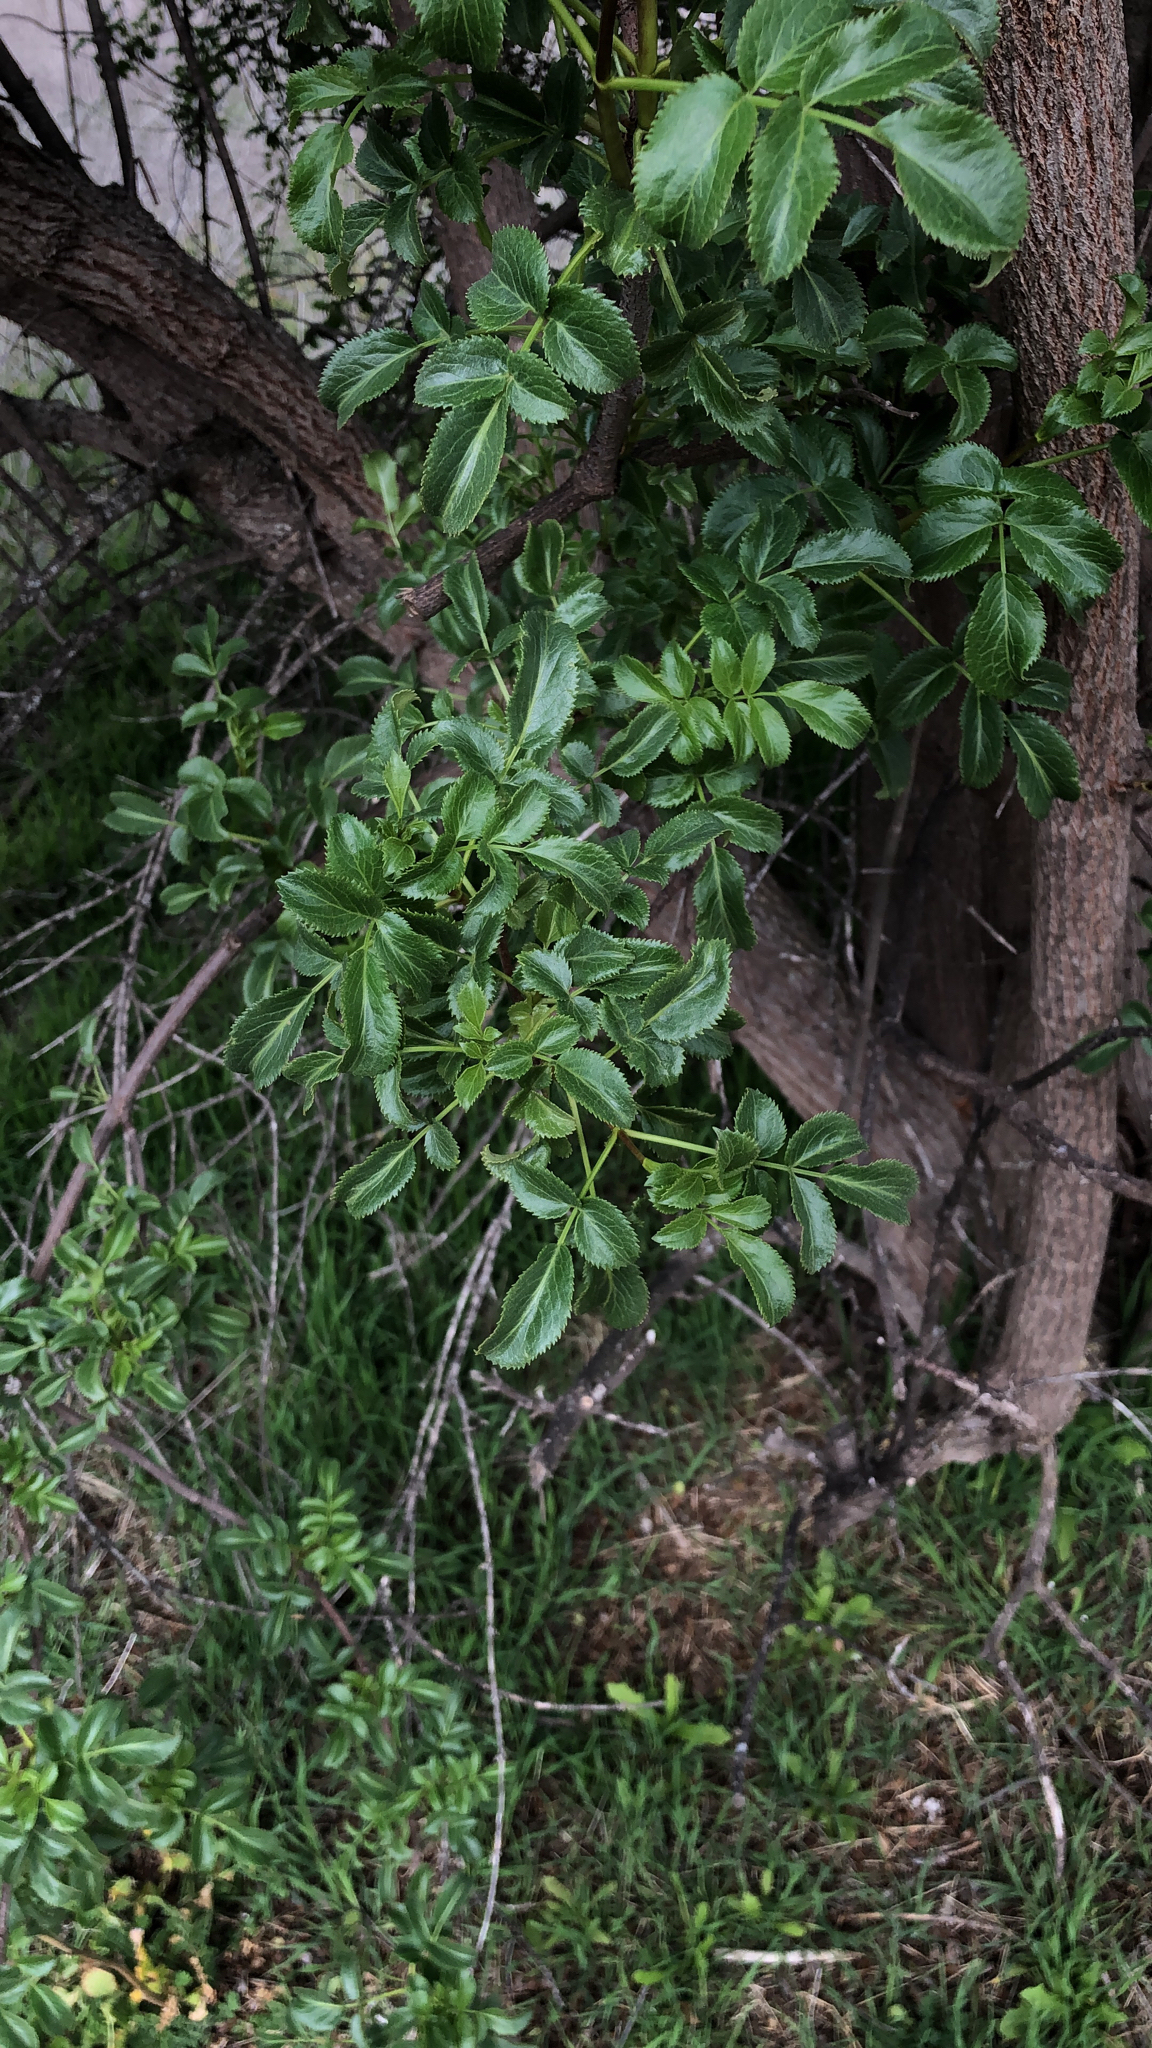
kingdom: Plantae
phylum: Tracheophyta
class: Magnoliopsida
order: Dipsacales
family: Viburnaceae
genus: Sambucus
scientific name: Sambucus cerulea
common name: Blue elder
